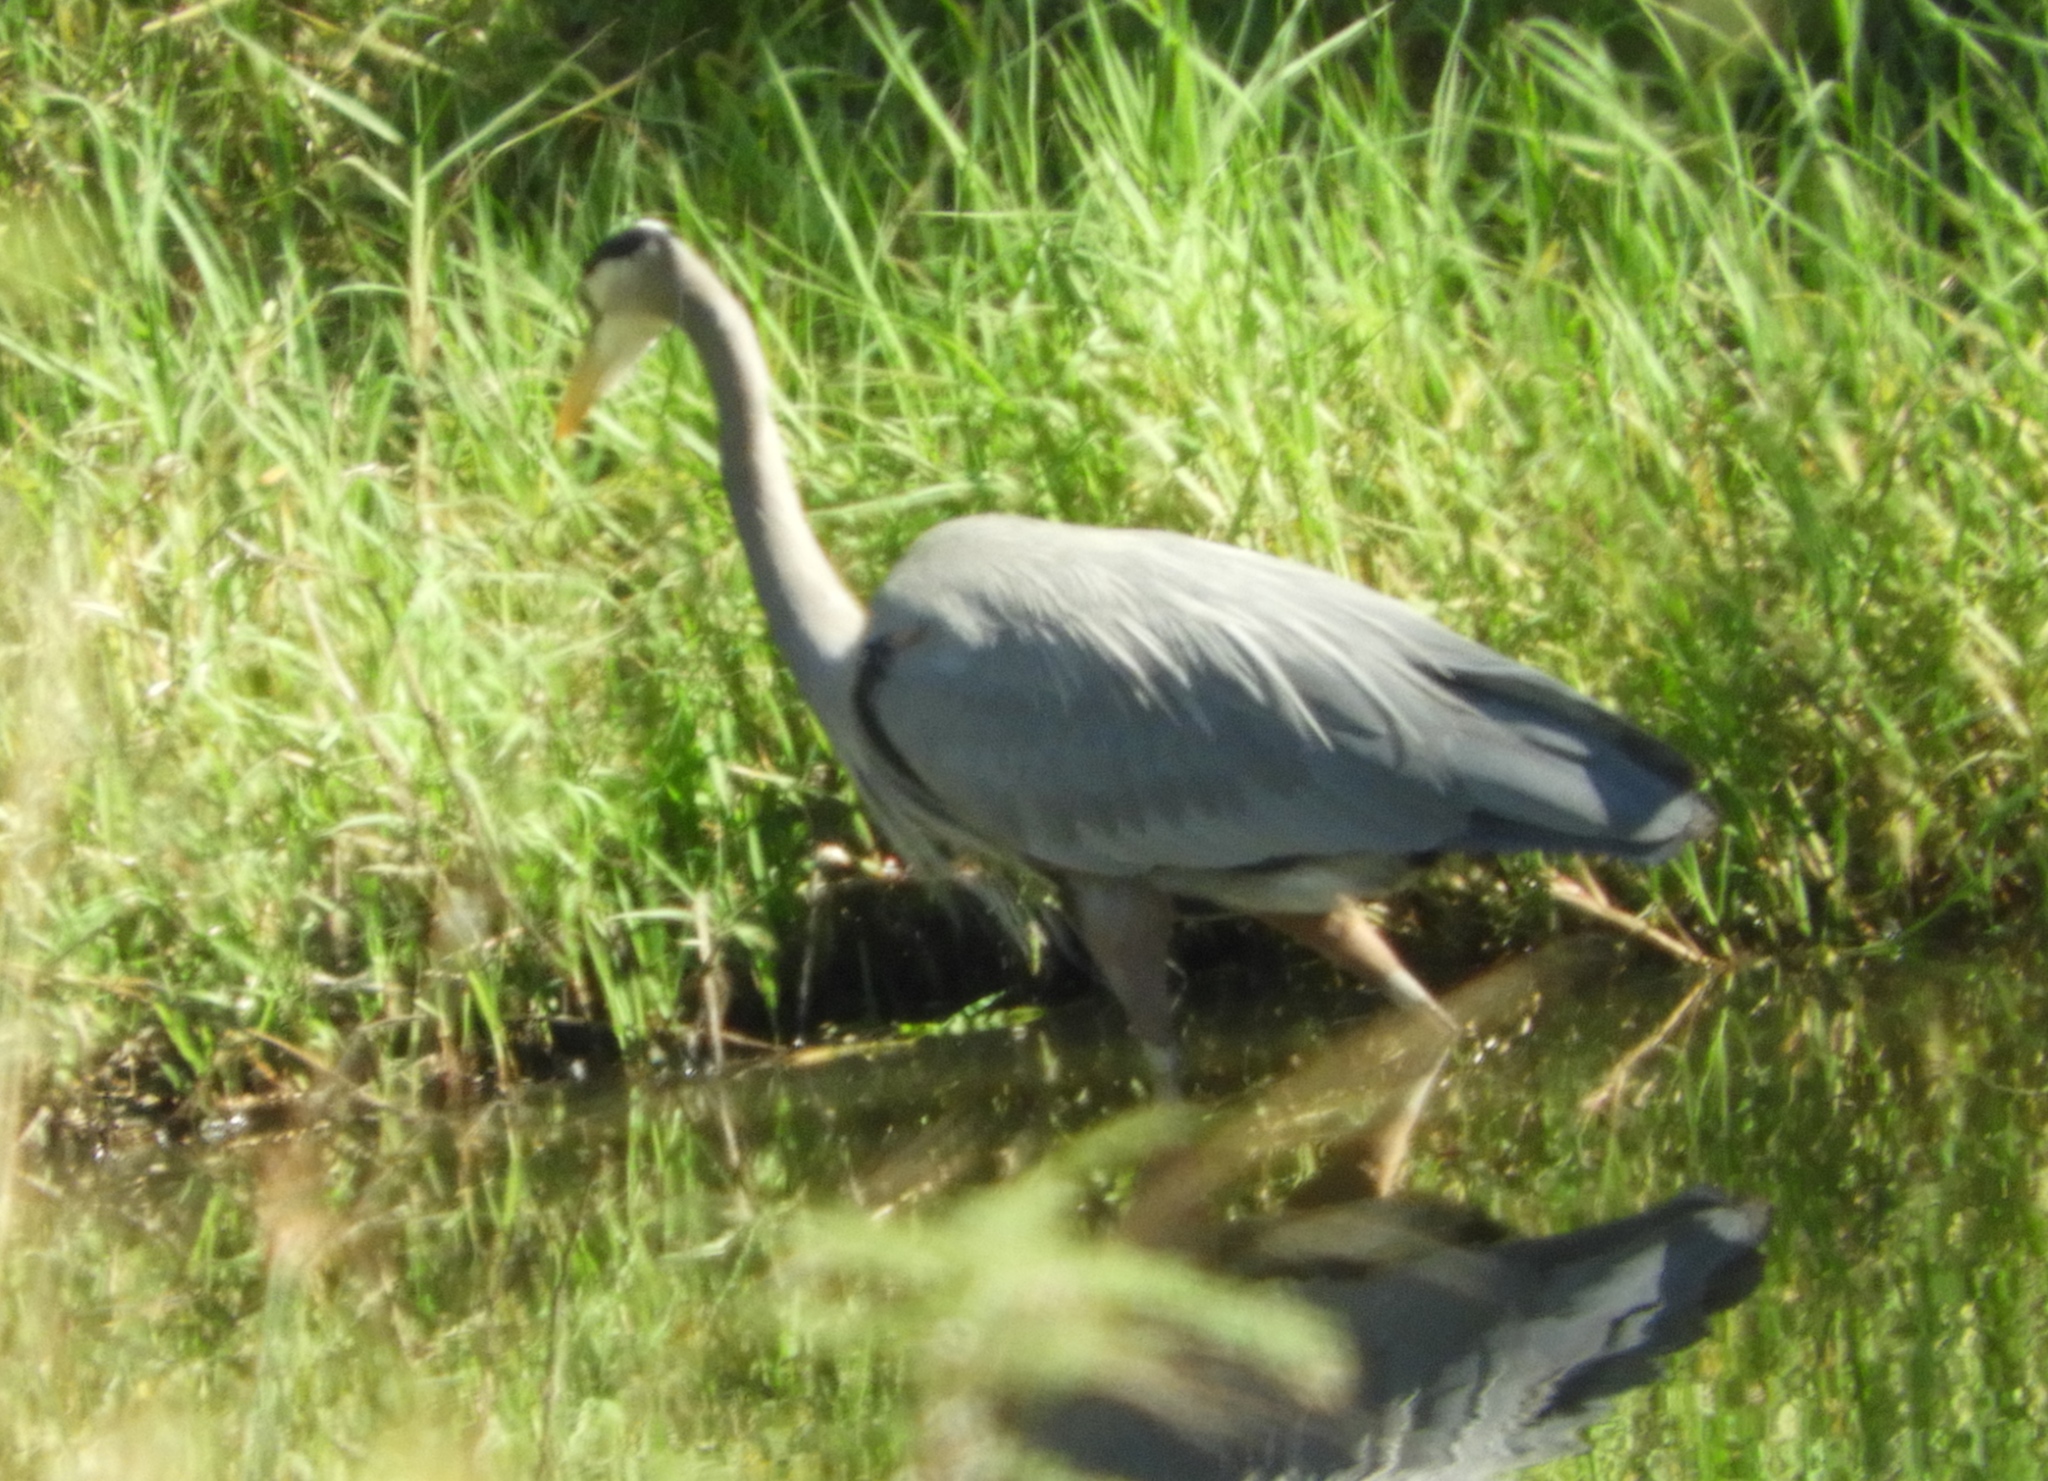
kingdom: Animalia
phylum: Chordata
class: Aves
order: Pelecaniformes
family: Ardeidae
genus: Ardea
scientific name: Ardea herodias
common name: Great blue heron
